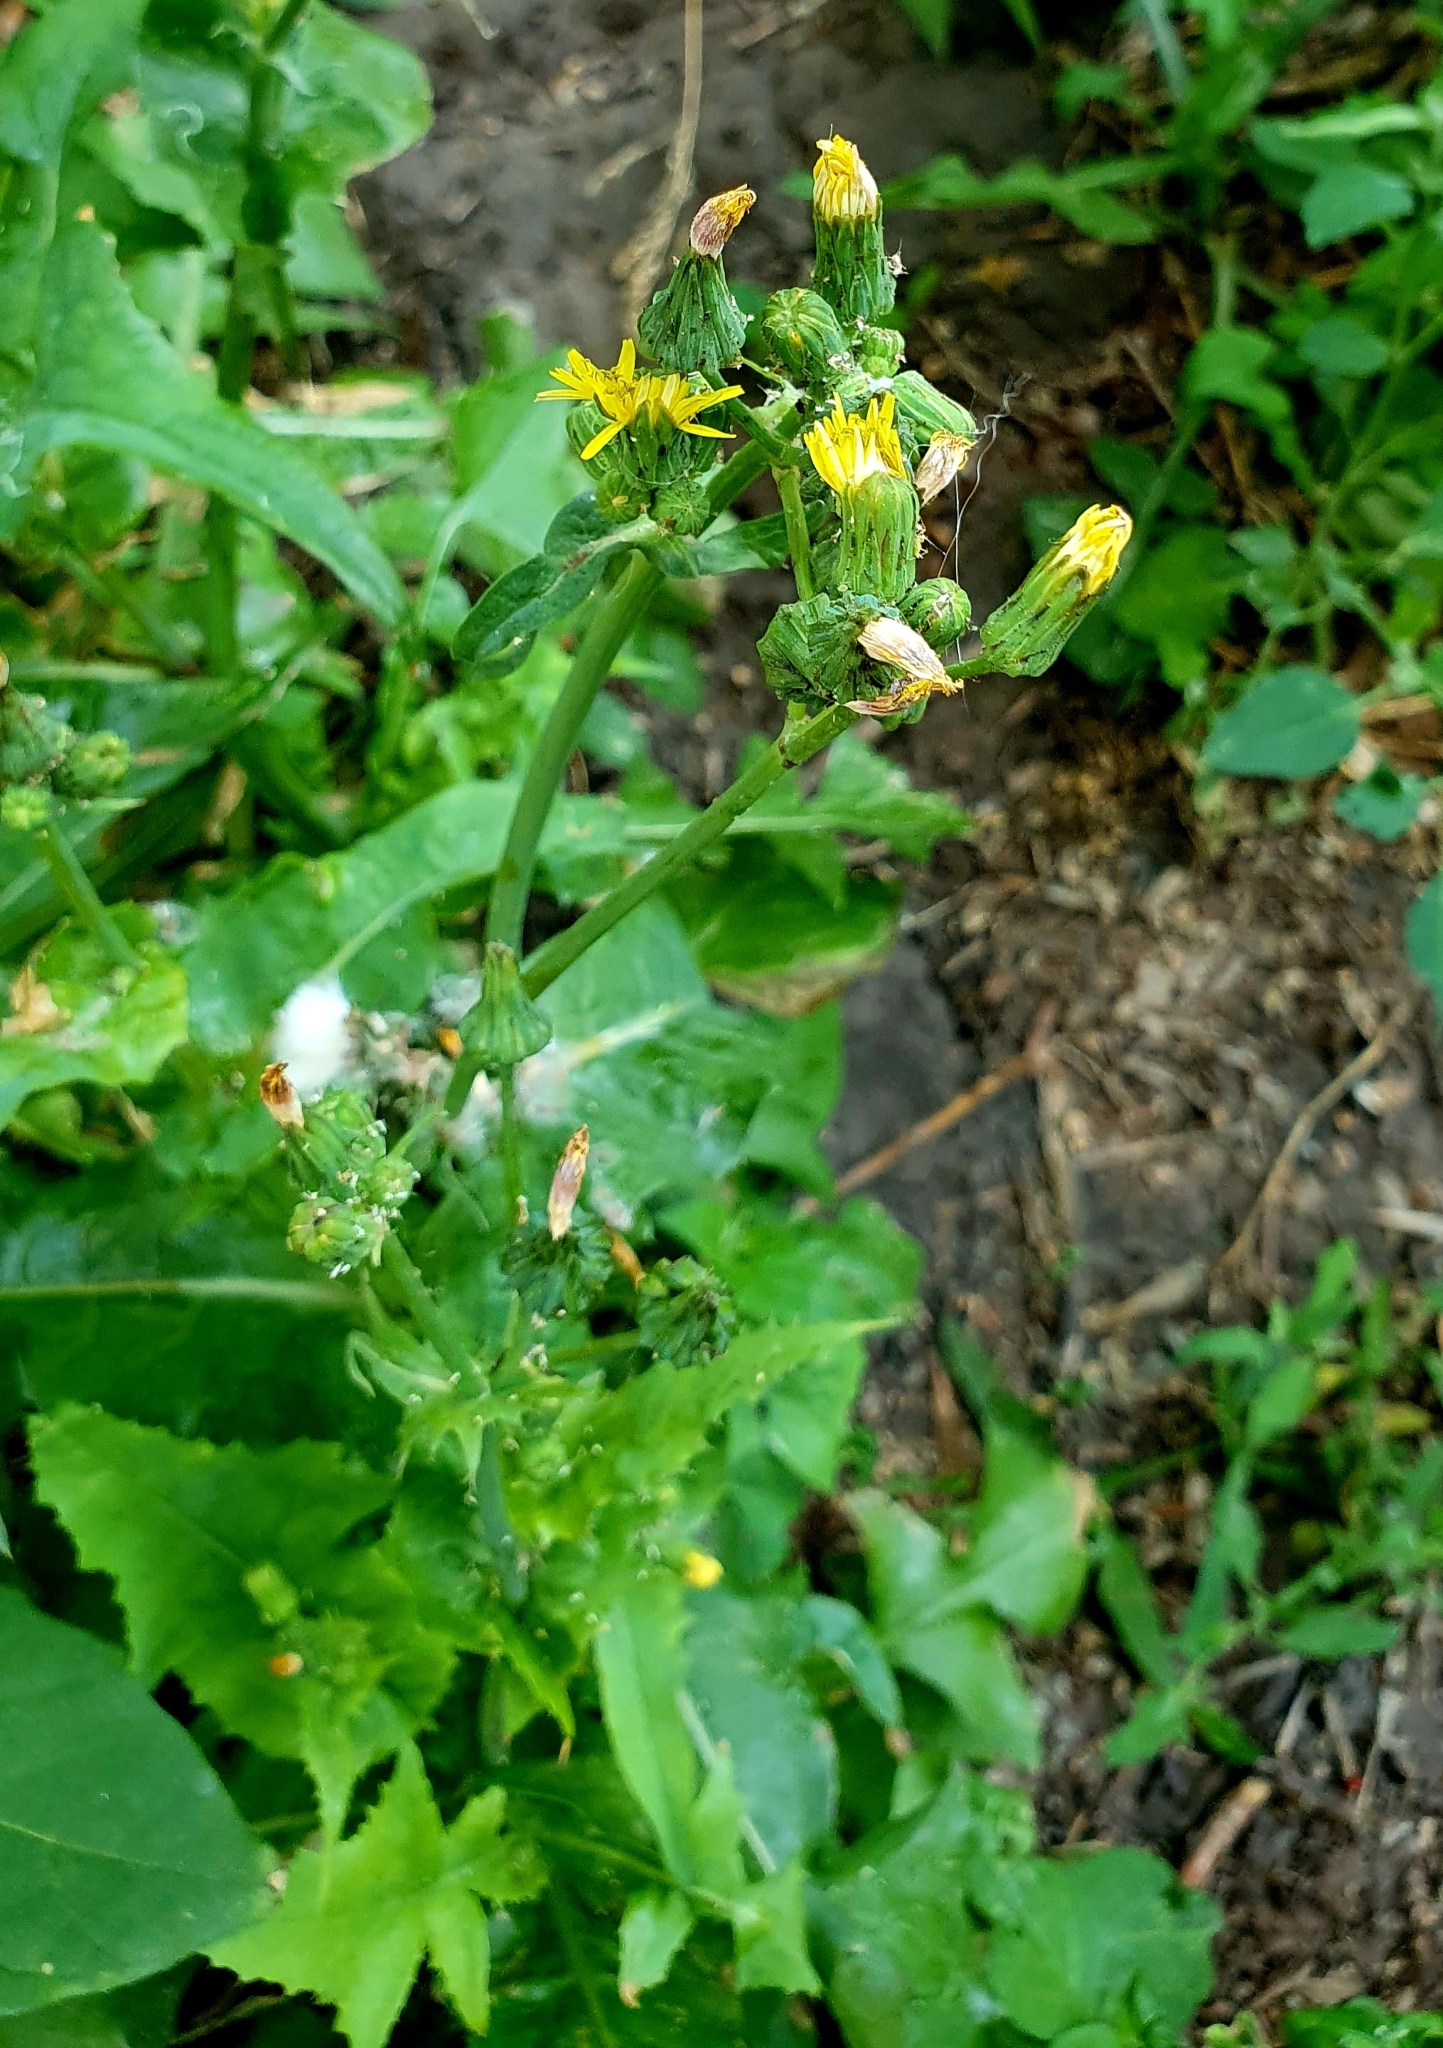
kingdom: Plantae
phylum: Tracheophyta
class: Magnoliopsida
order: Asterales
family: Asteraceae
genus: Sonchus
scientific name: Sonchus oleraceus
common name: Common sowthistle
